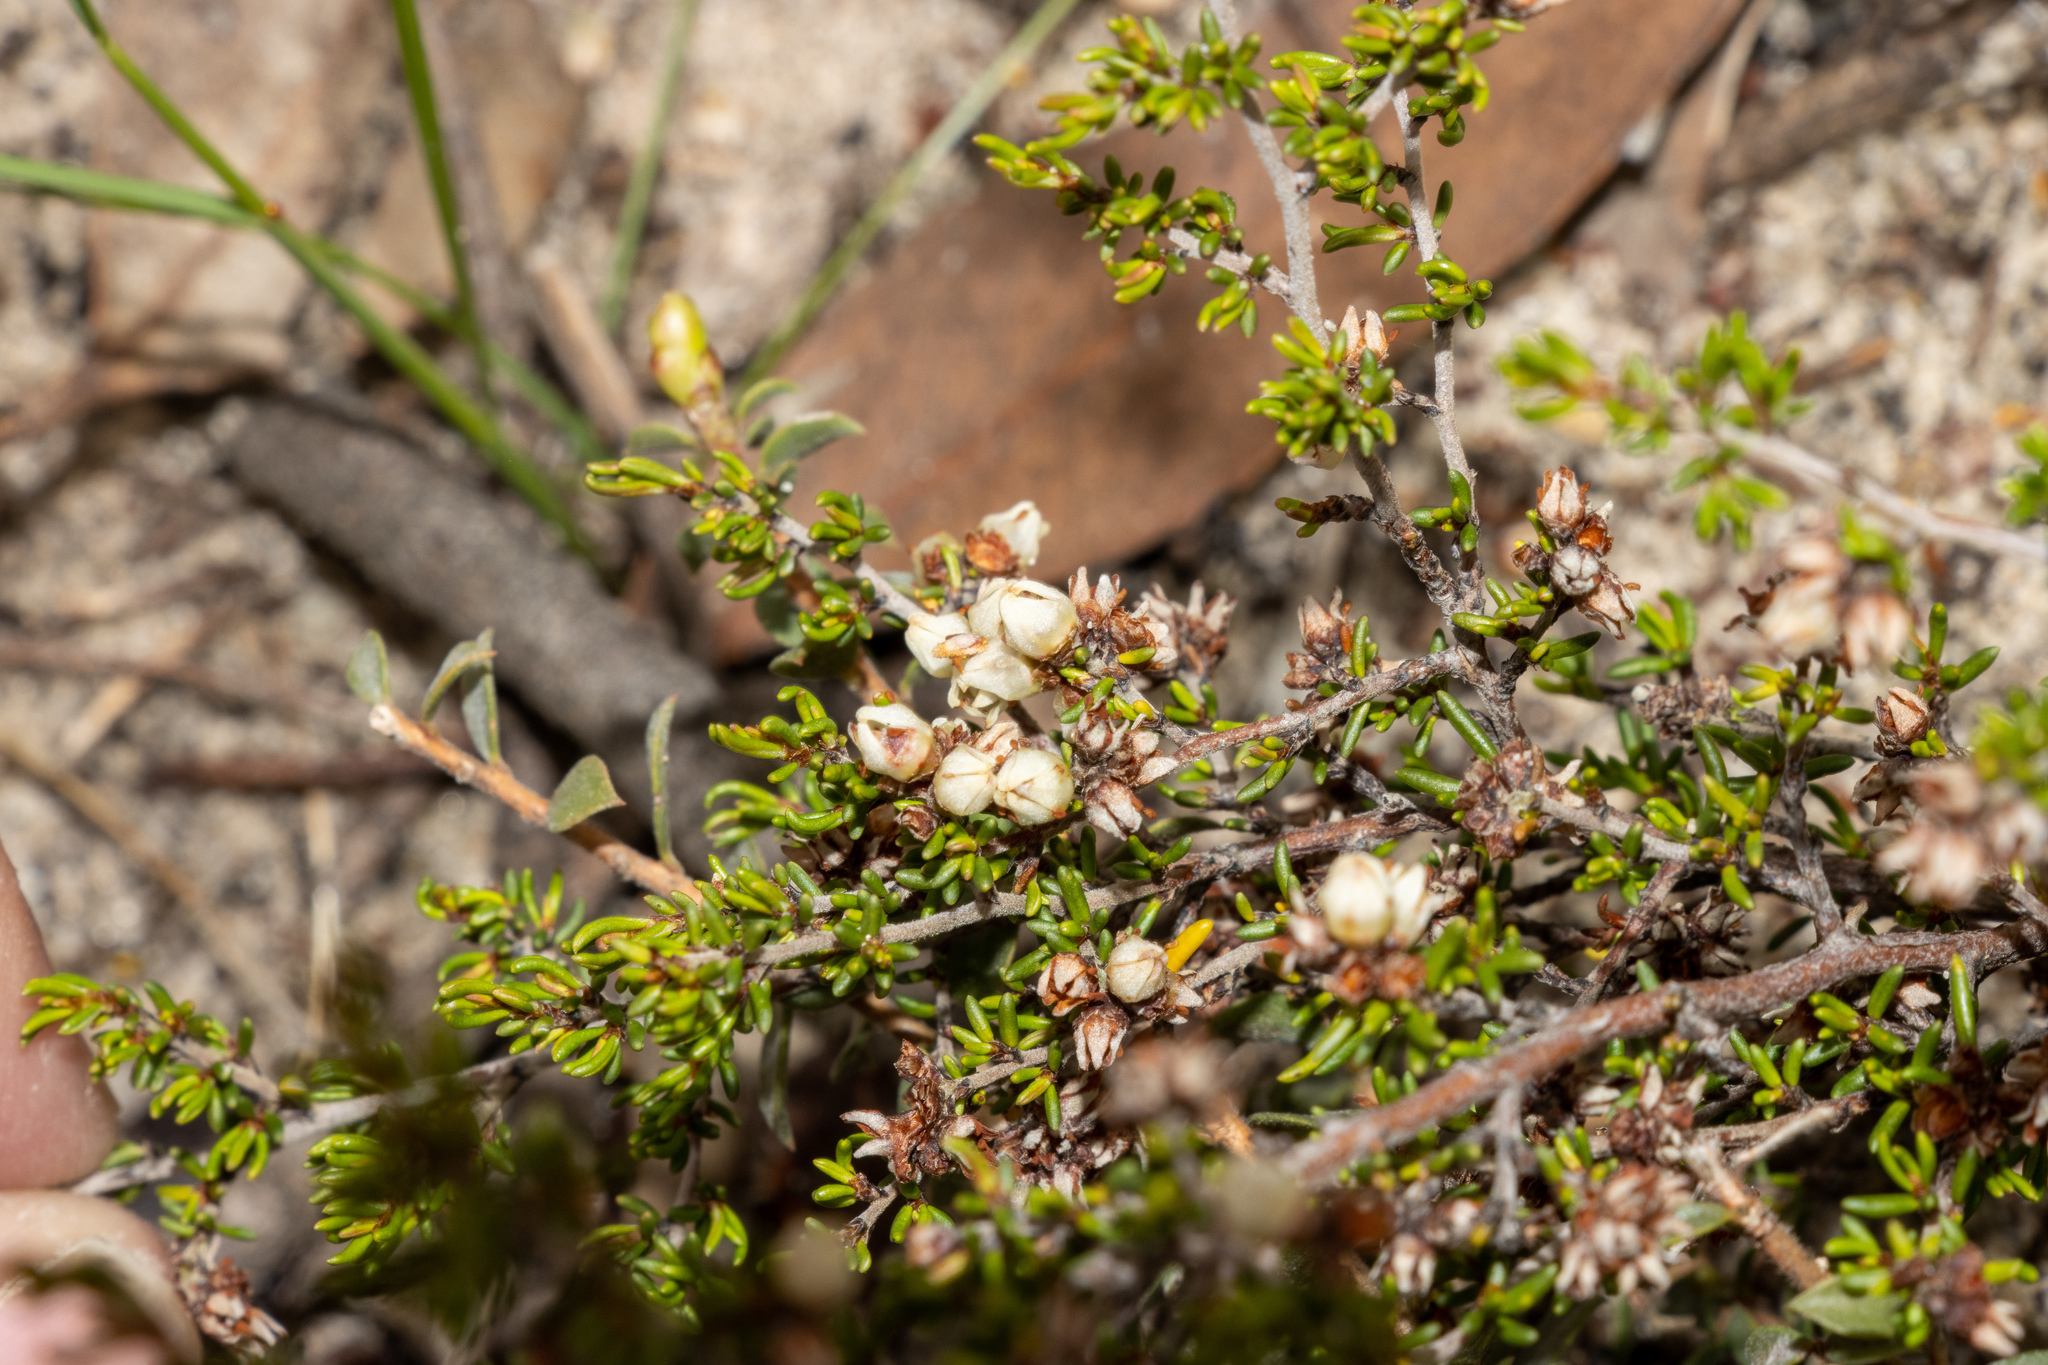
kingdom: Plantae
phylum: Tracheophyta
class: Magnoliopsida
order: Rosales
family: Rhamnaceae
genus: Cryptandra
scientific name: Cryptandra tomentosa
